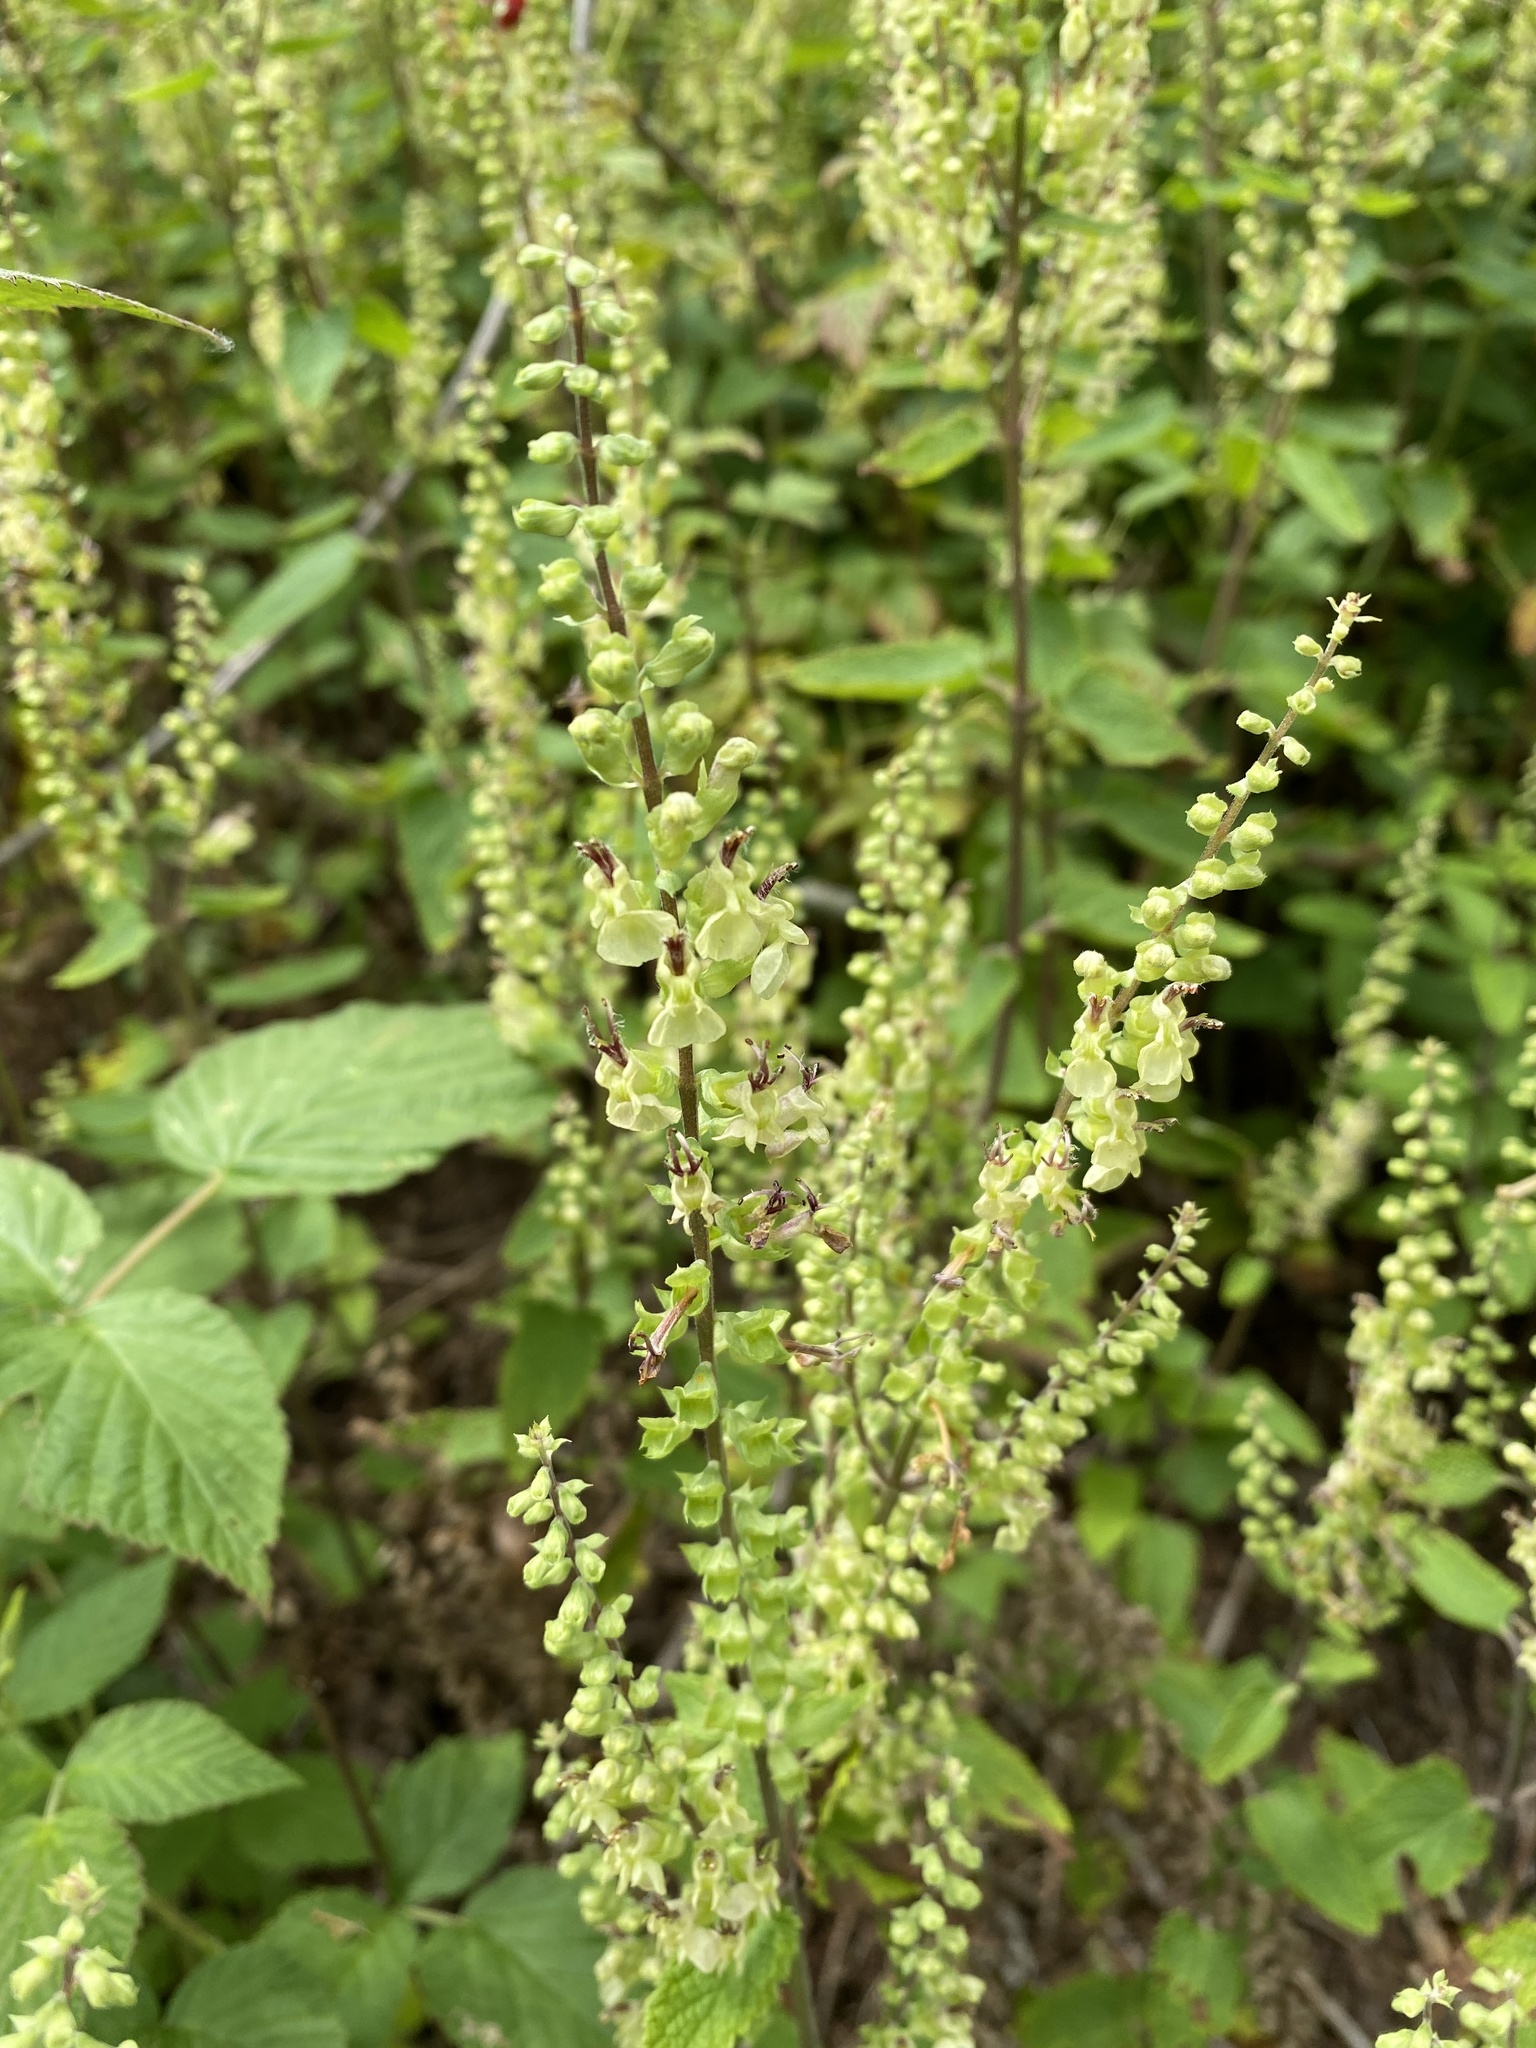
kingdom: Plantae
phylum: Tracheophyta
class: Magnoliopsida
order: Lamiales
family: Lamiaceae
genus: Teucrium
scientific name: Teucrium scorodonia
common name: Woodland germander
